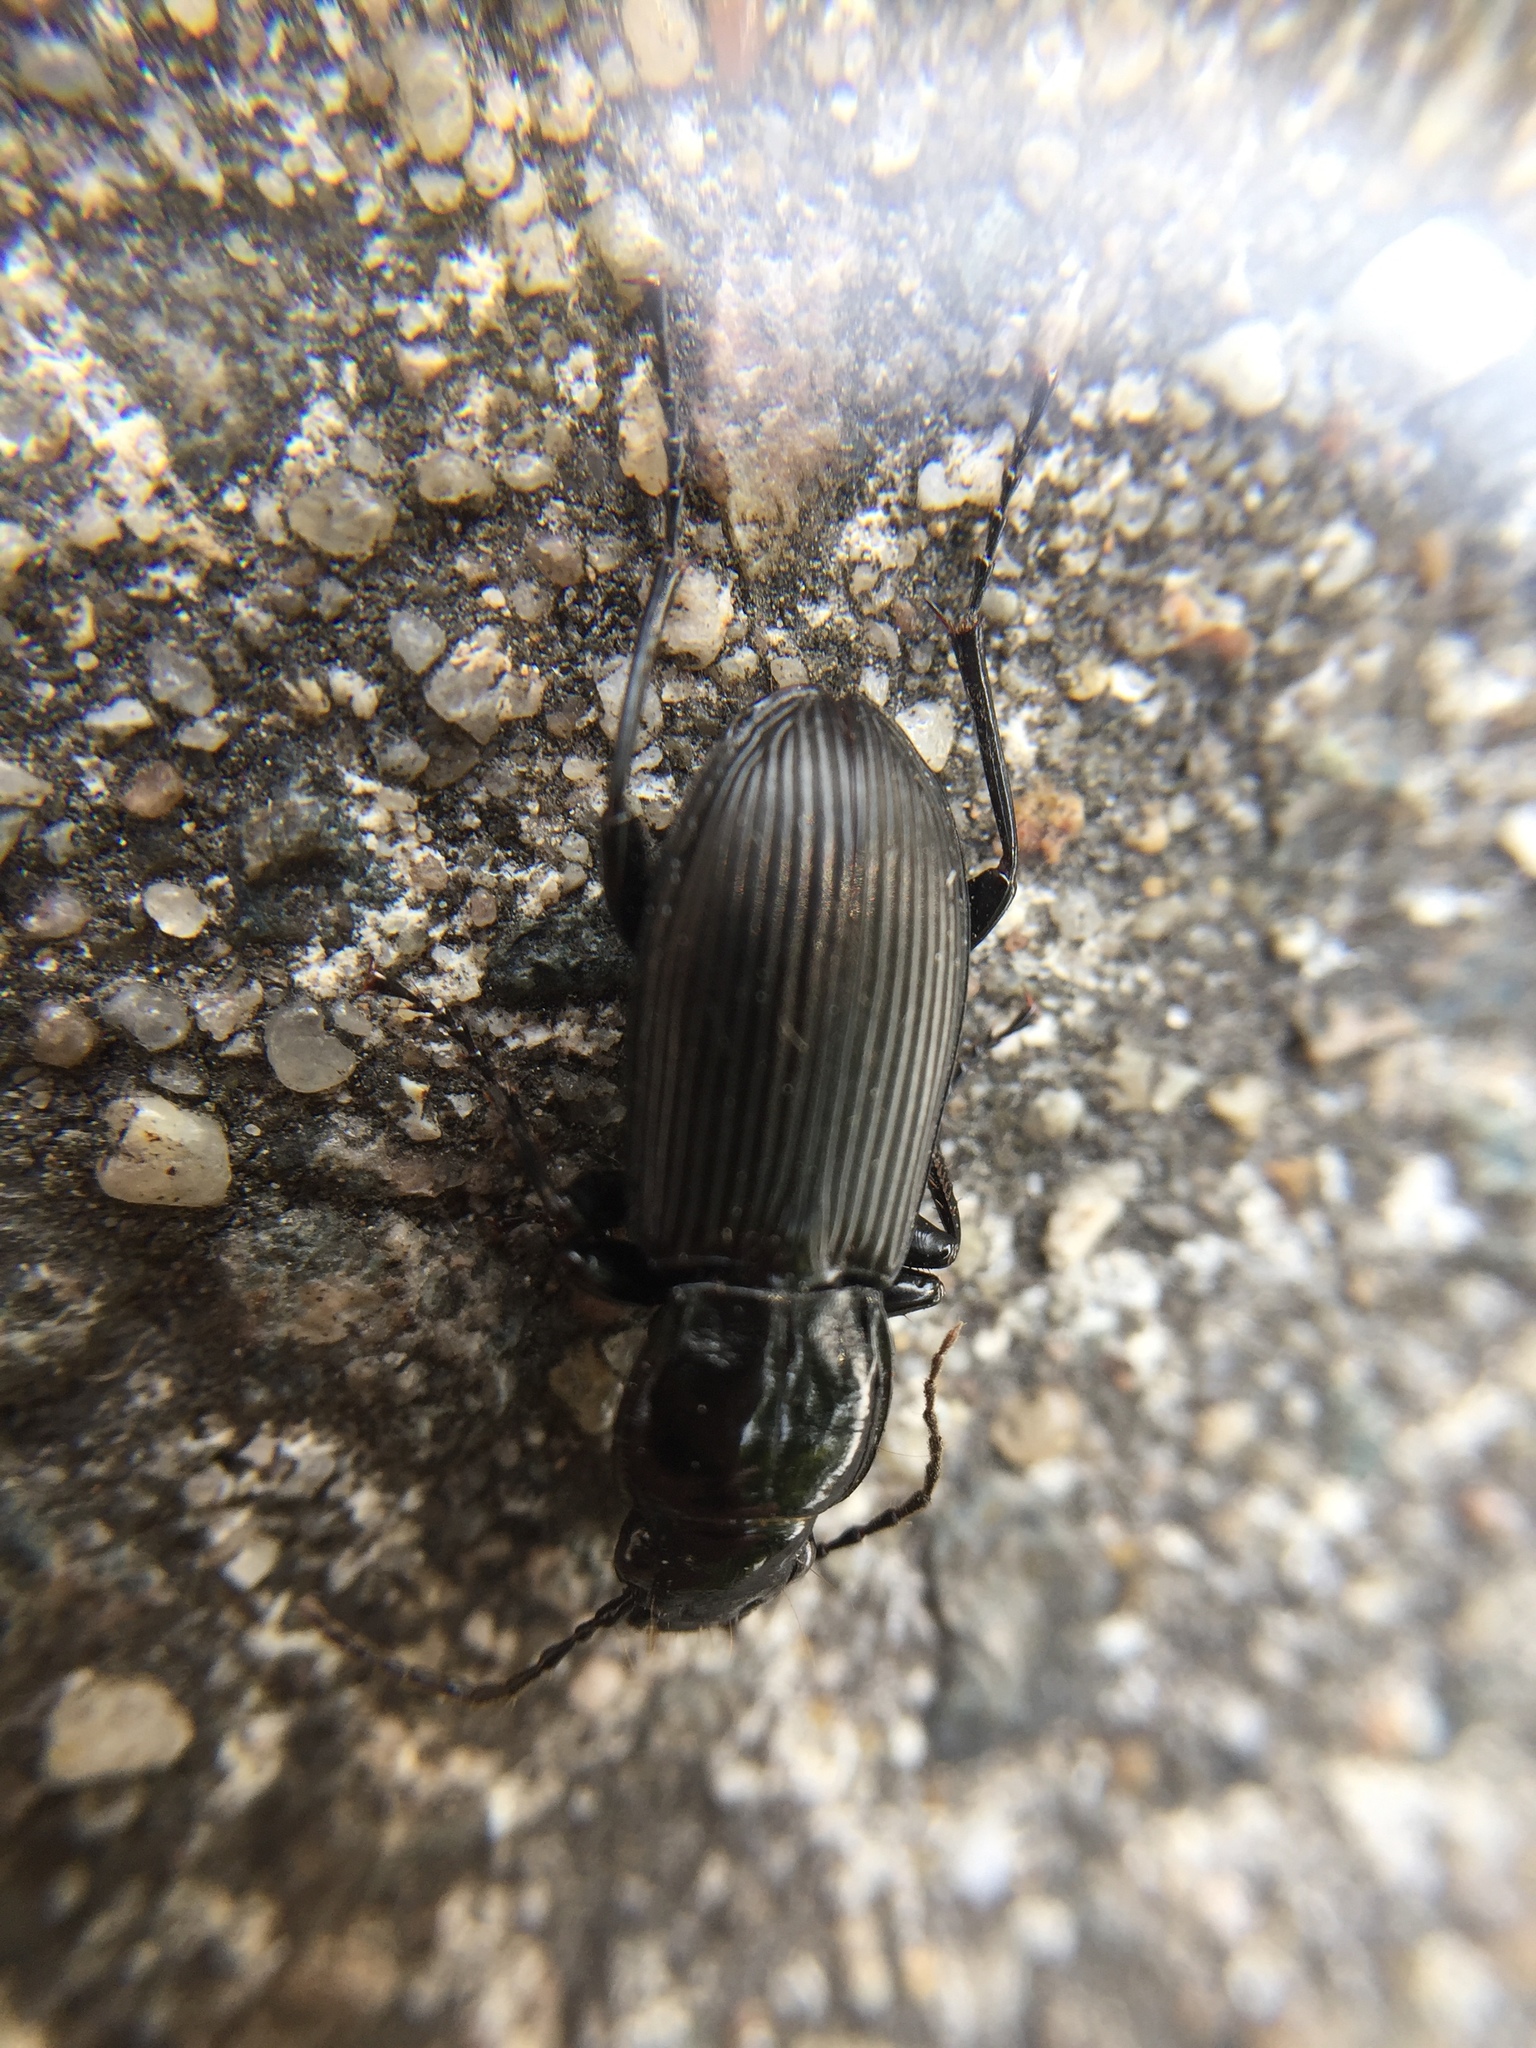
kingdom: Animalia
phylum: Arthropoda
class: Insecta
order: Coleoptera
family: Carabidae
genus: Pterostichus
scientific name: Pterostichus melanarius
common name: European dark harp ground beetle
